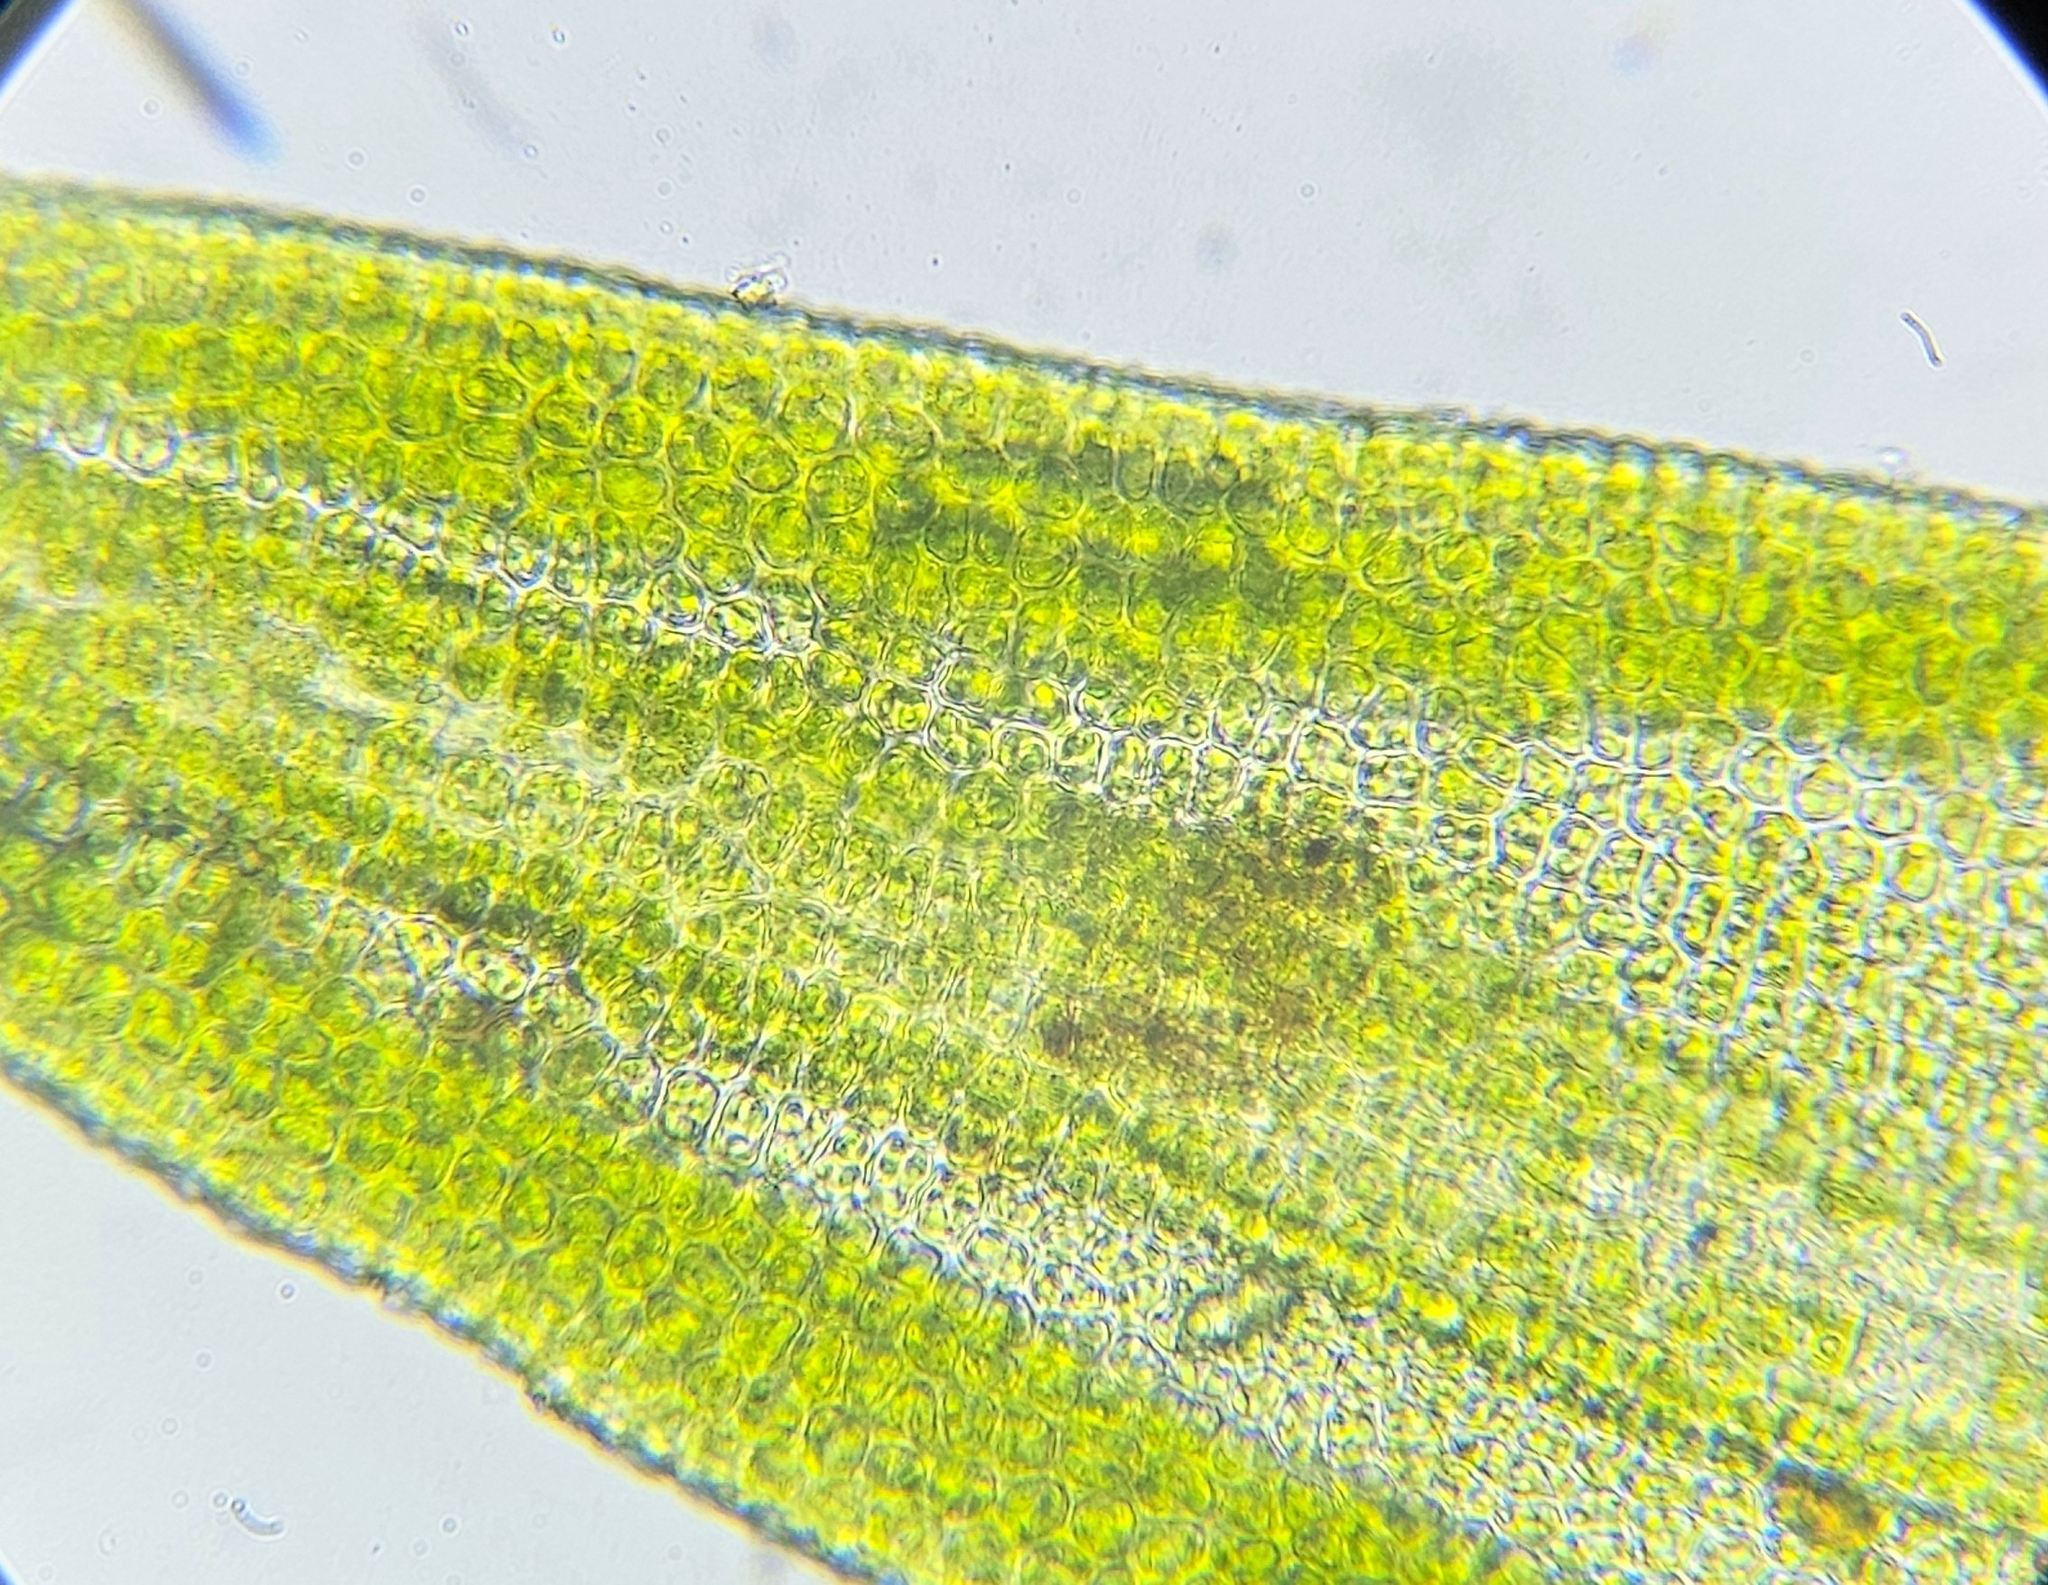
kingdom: Plantae
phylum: Bryophyta
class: Bryopsida
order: Pottiales
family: Pottiaceae
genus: Pseudocrossidium
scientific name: Pseudocrossidium hornschuchianum
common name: Hornschuch's beard-moss
